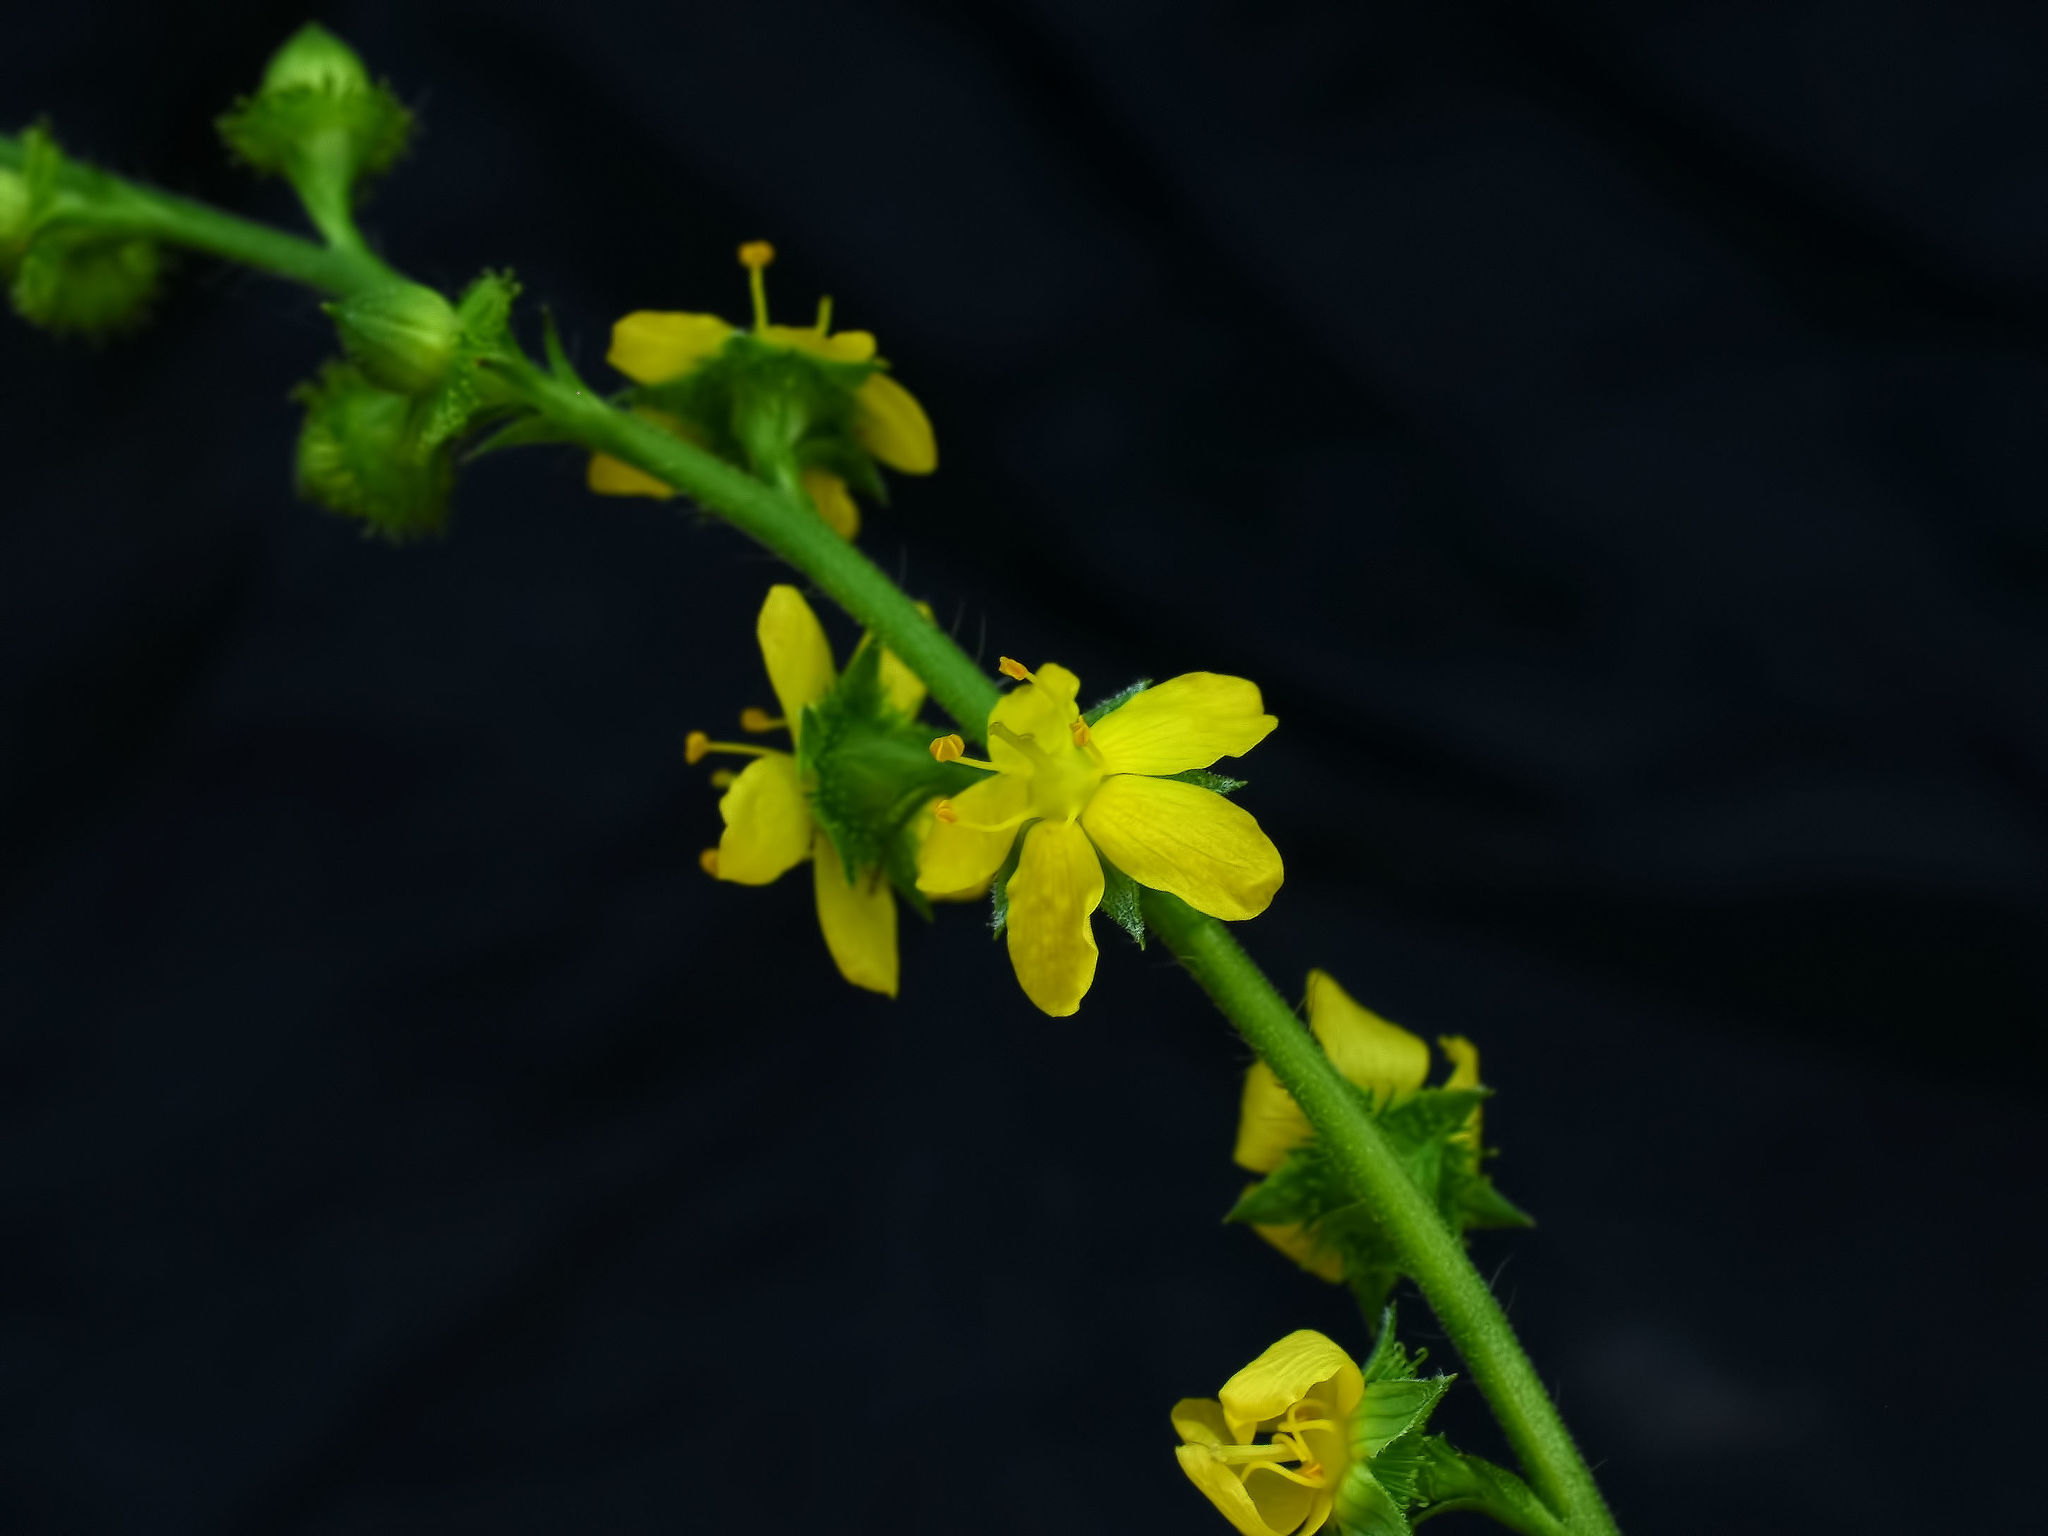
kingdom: Plantae
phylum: Tracheophyta
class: Magnoliopsida
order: Rosales
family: Rosaceae
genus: Agrimonia
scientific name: Agrimonia gryposepala
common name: Common agrimony
